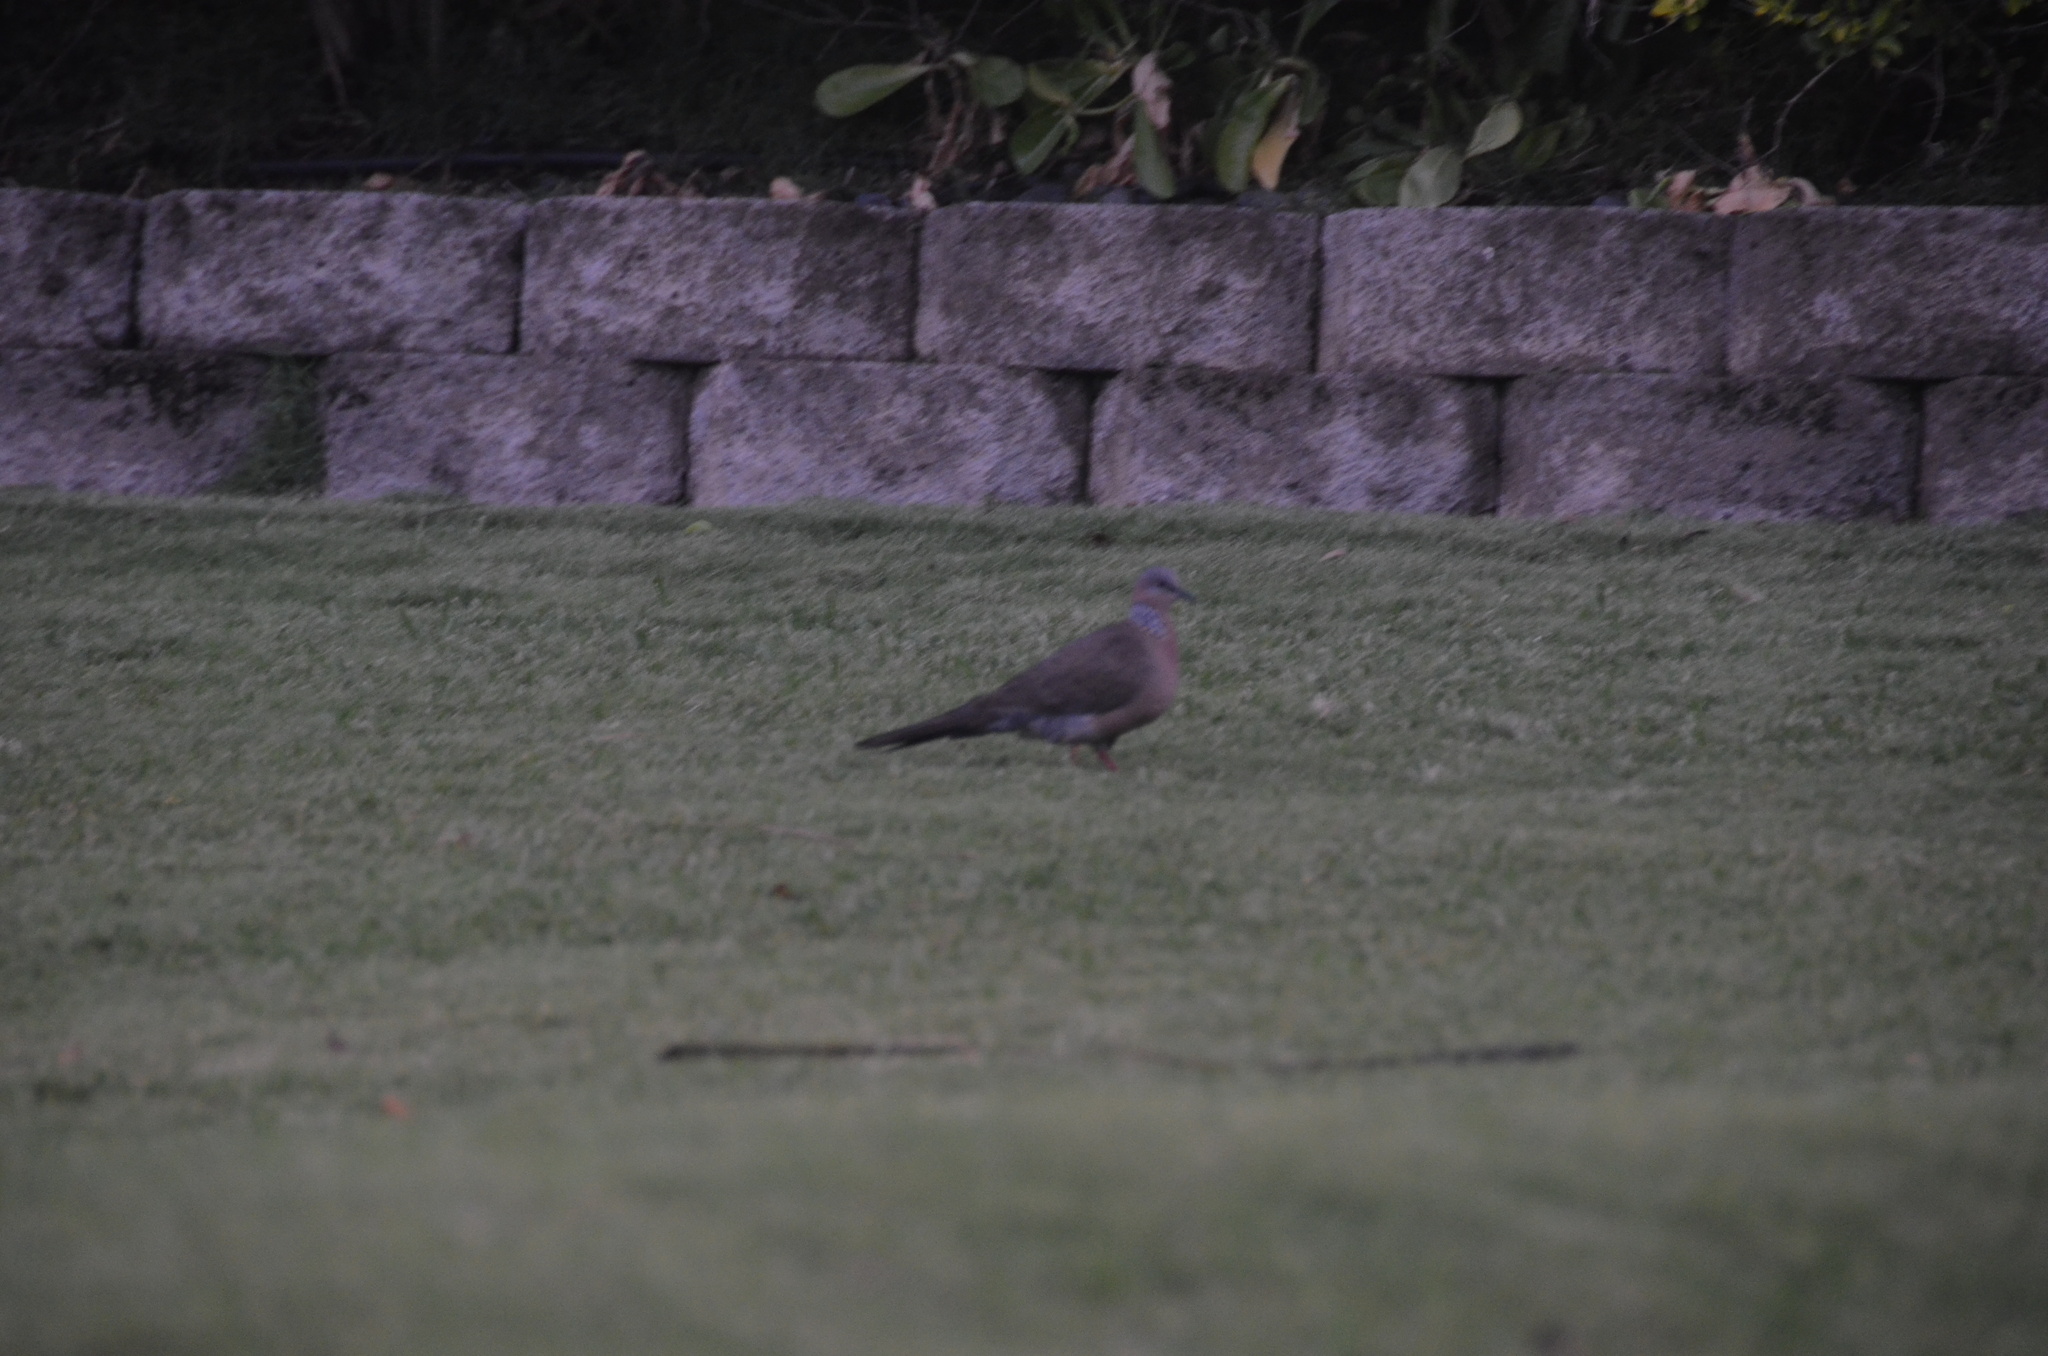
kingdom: Animalia
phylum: Chordata
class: Aves
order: Columbiformes
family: Columbidae
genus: Spilopelia
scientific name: Spilopelia chinensis
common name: Spotted dove
